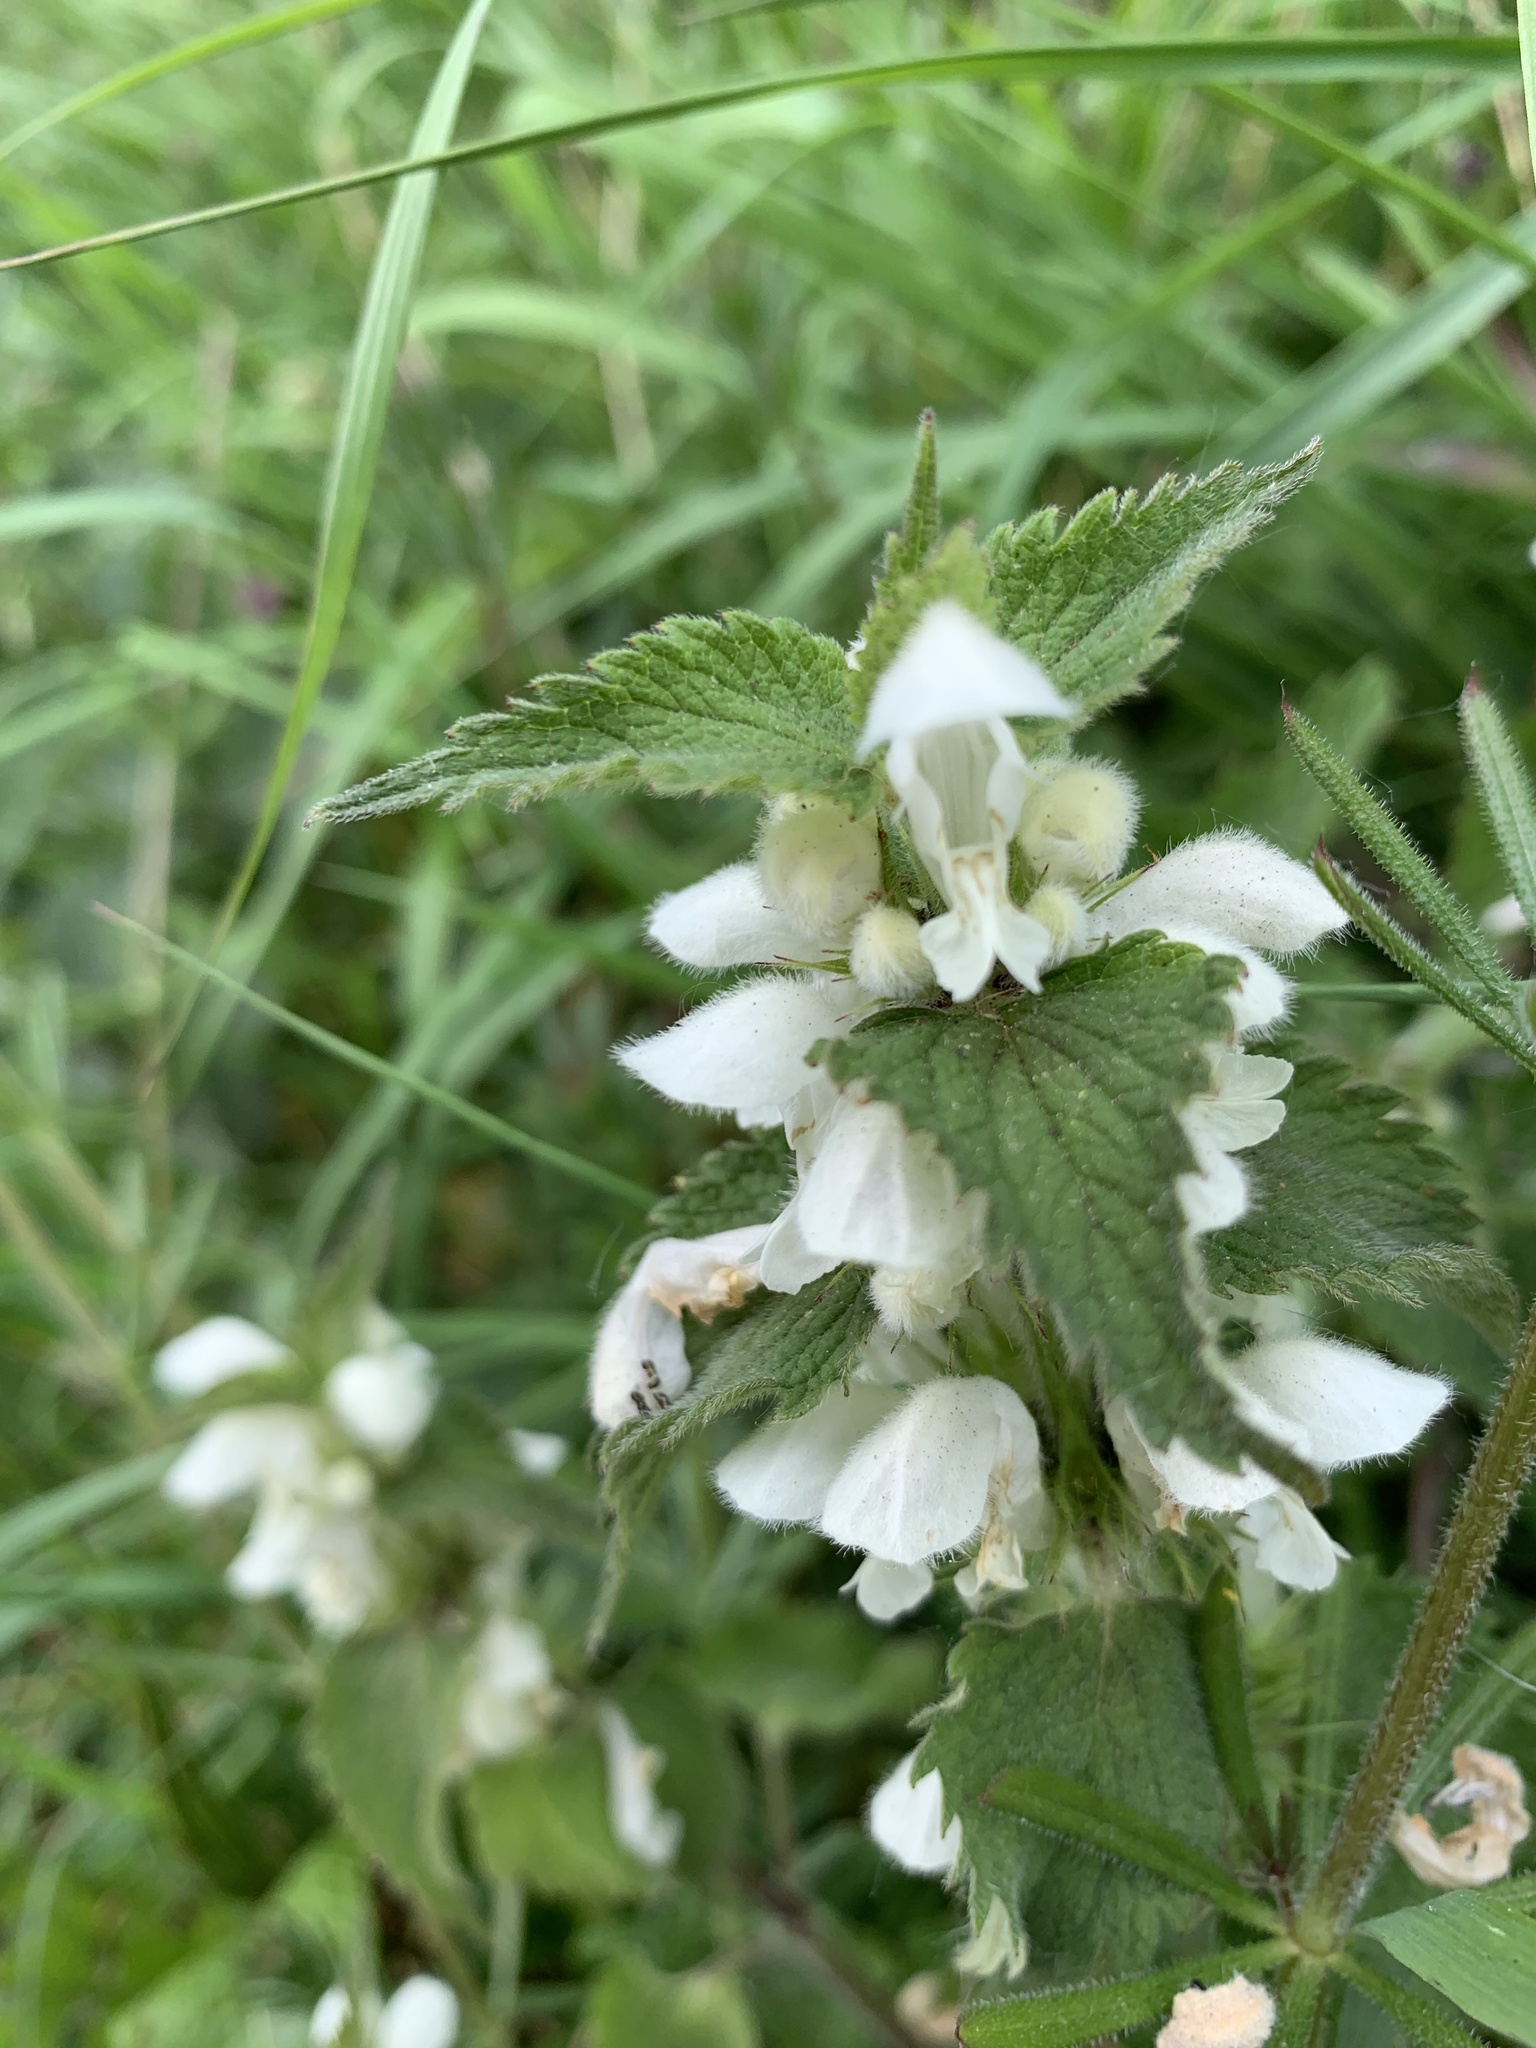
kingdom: Plantae
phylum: Tracheophyta
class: Magnoliopsida
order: Lamiales
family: Lamiaceae
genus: Lamium
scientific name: Lamium album
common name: White dead-nettle
